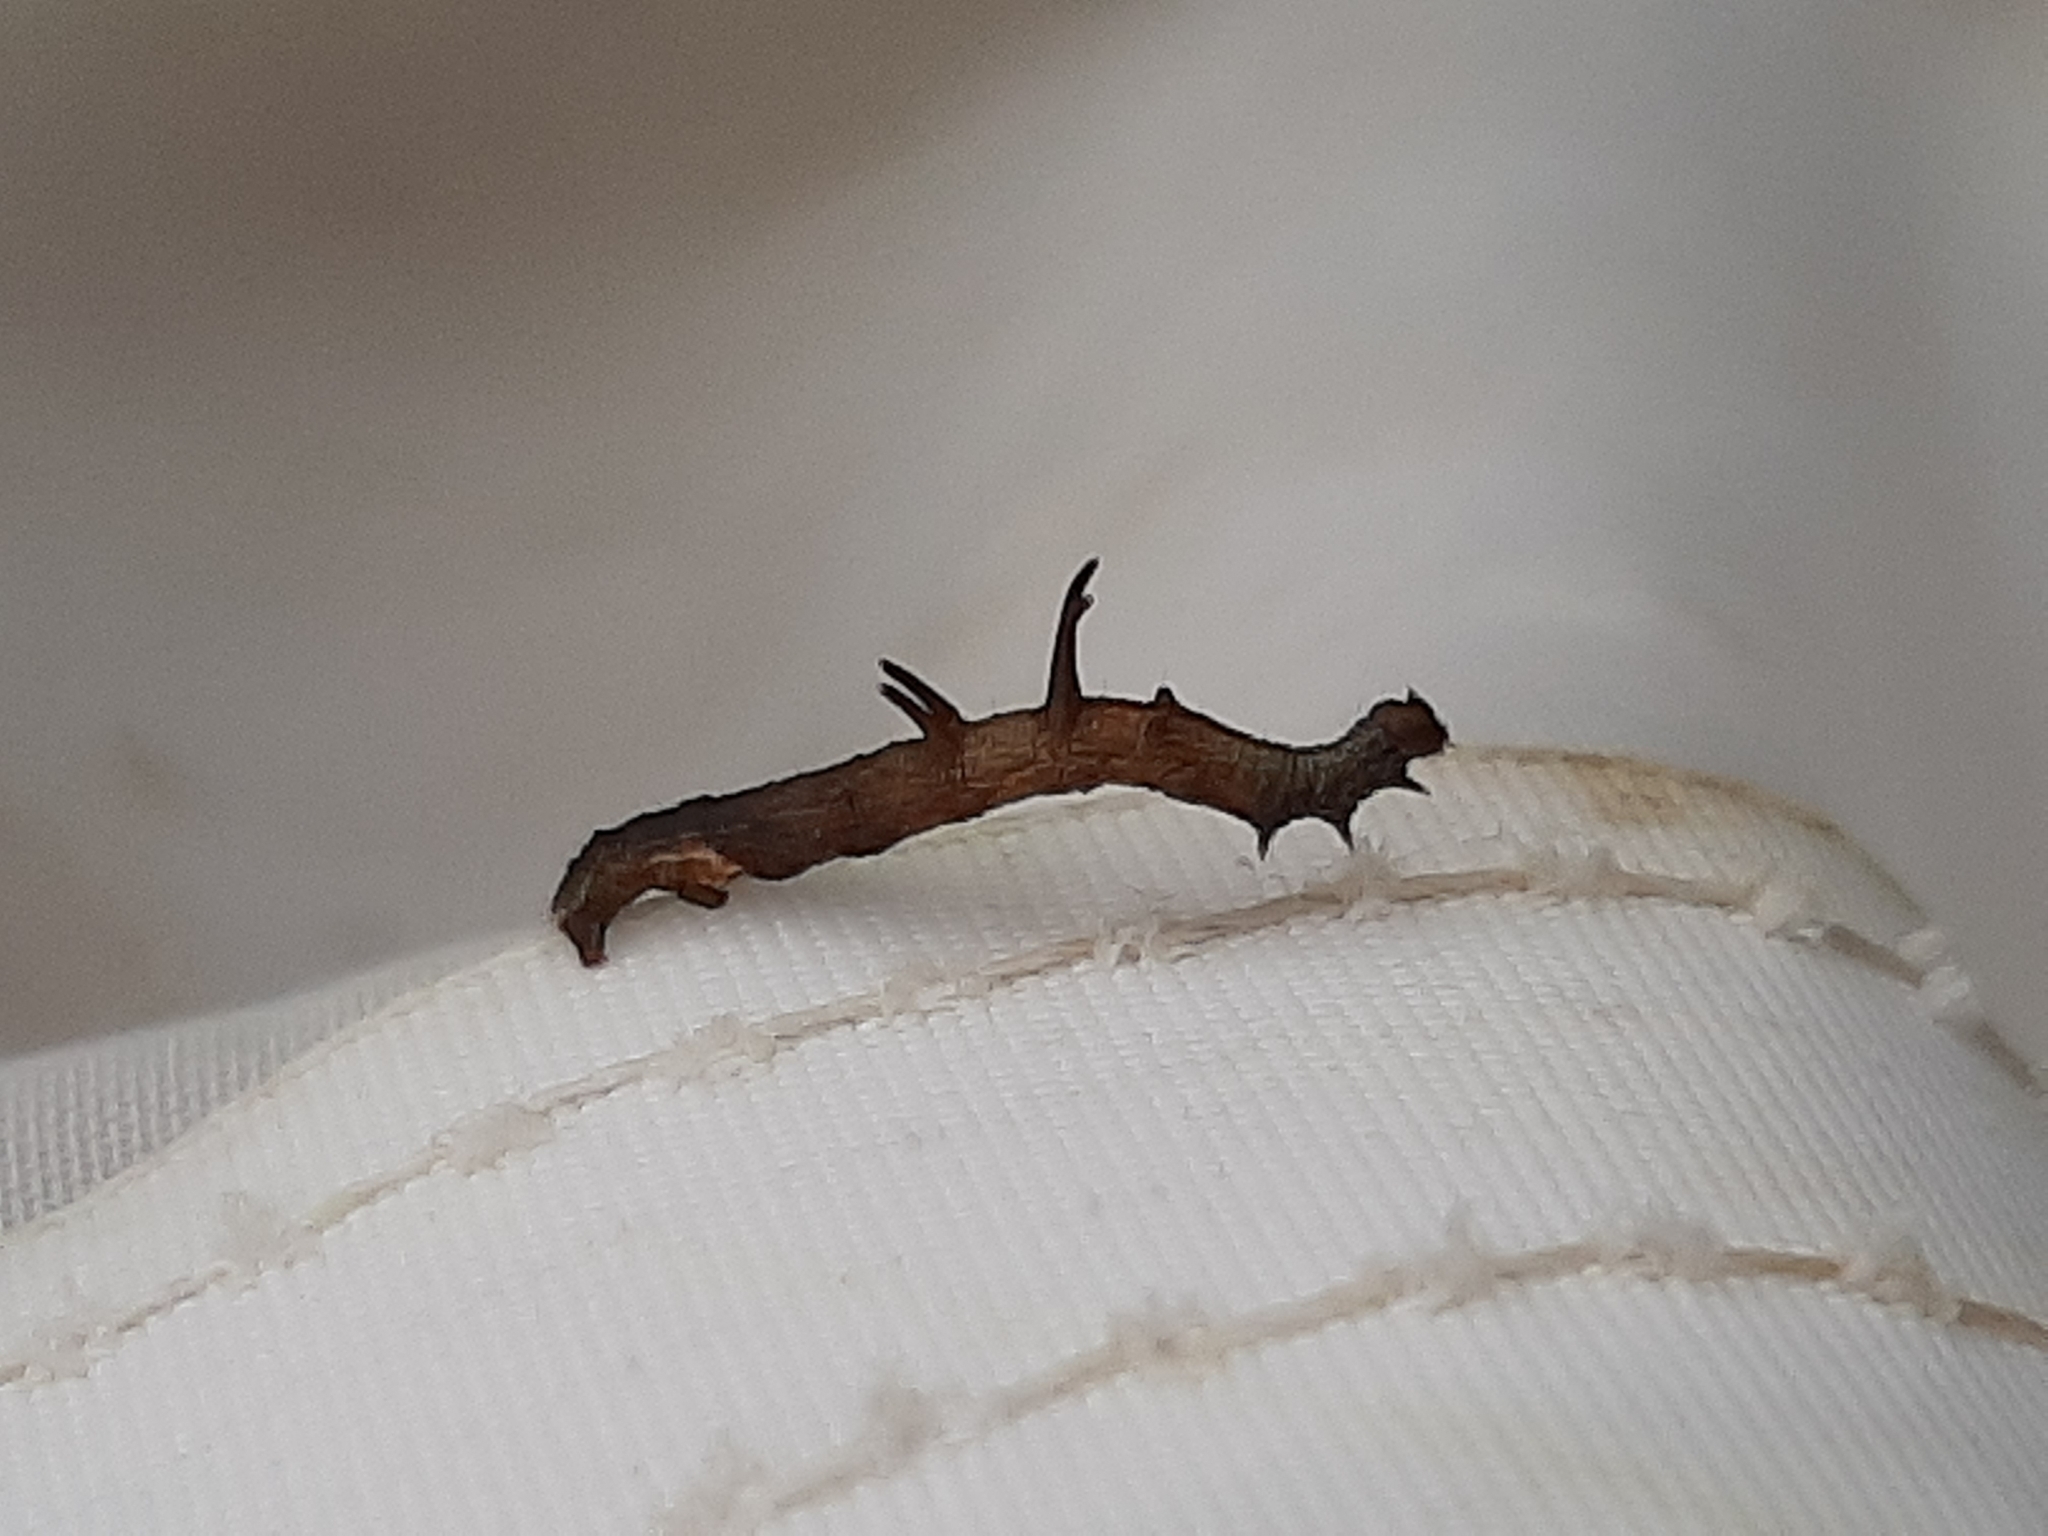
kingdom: Animalia
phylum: Arthropoda
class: Insecta
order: Lepidoptera
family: Geometridae
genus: Nematocampa
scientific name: Nematocampa resistaria
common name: Horned spanworm moth
